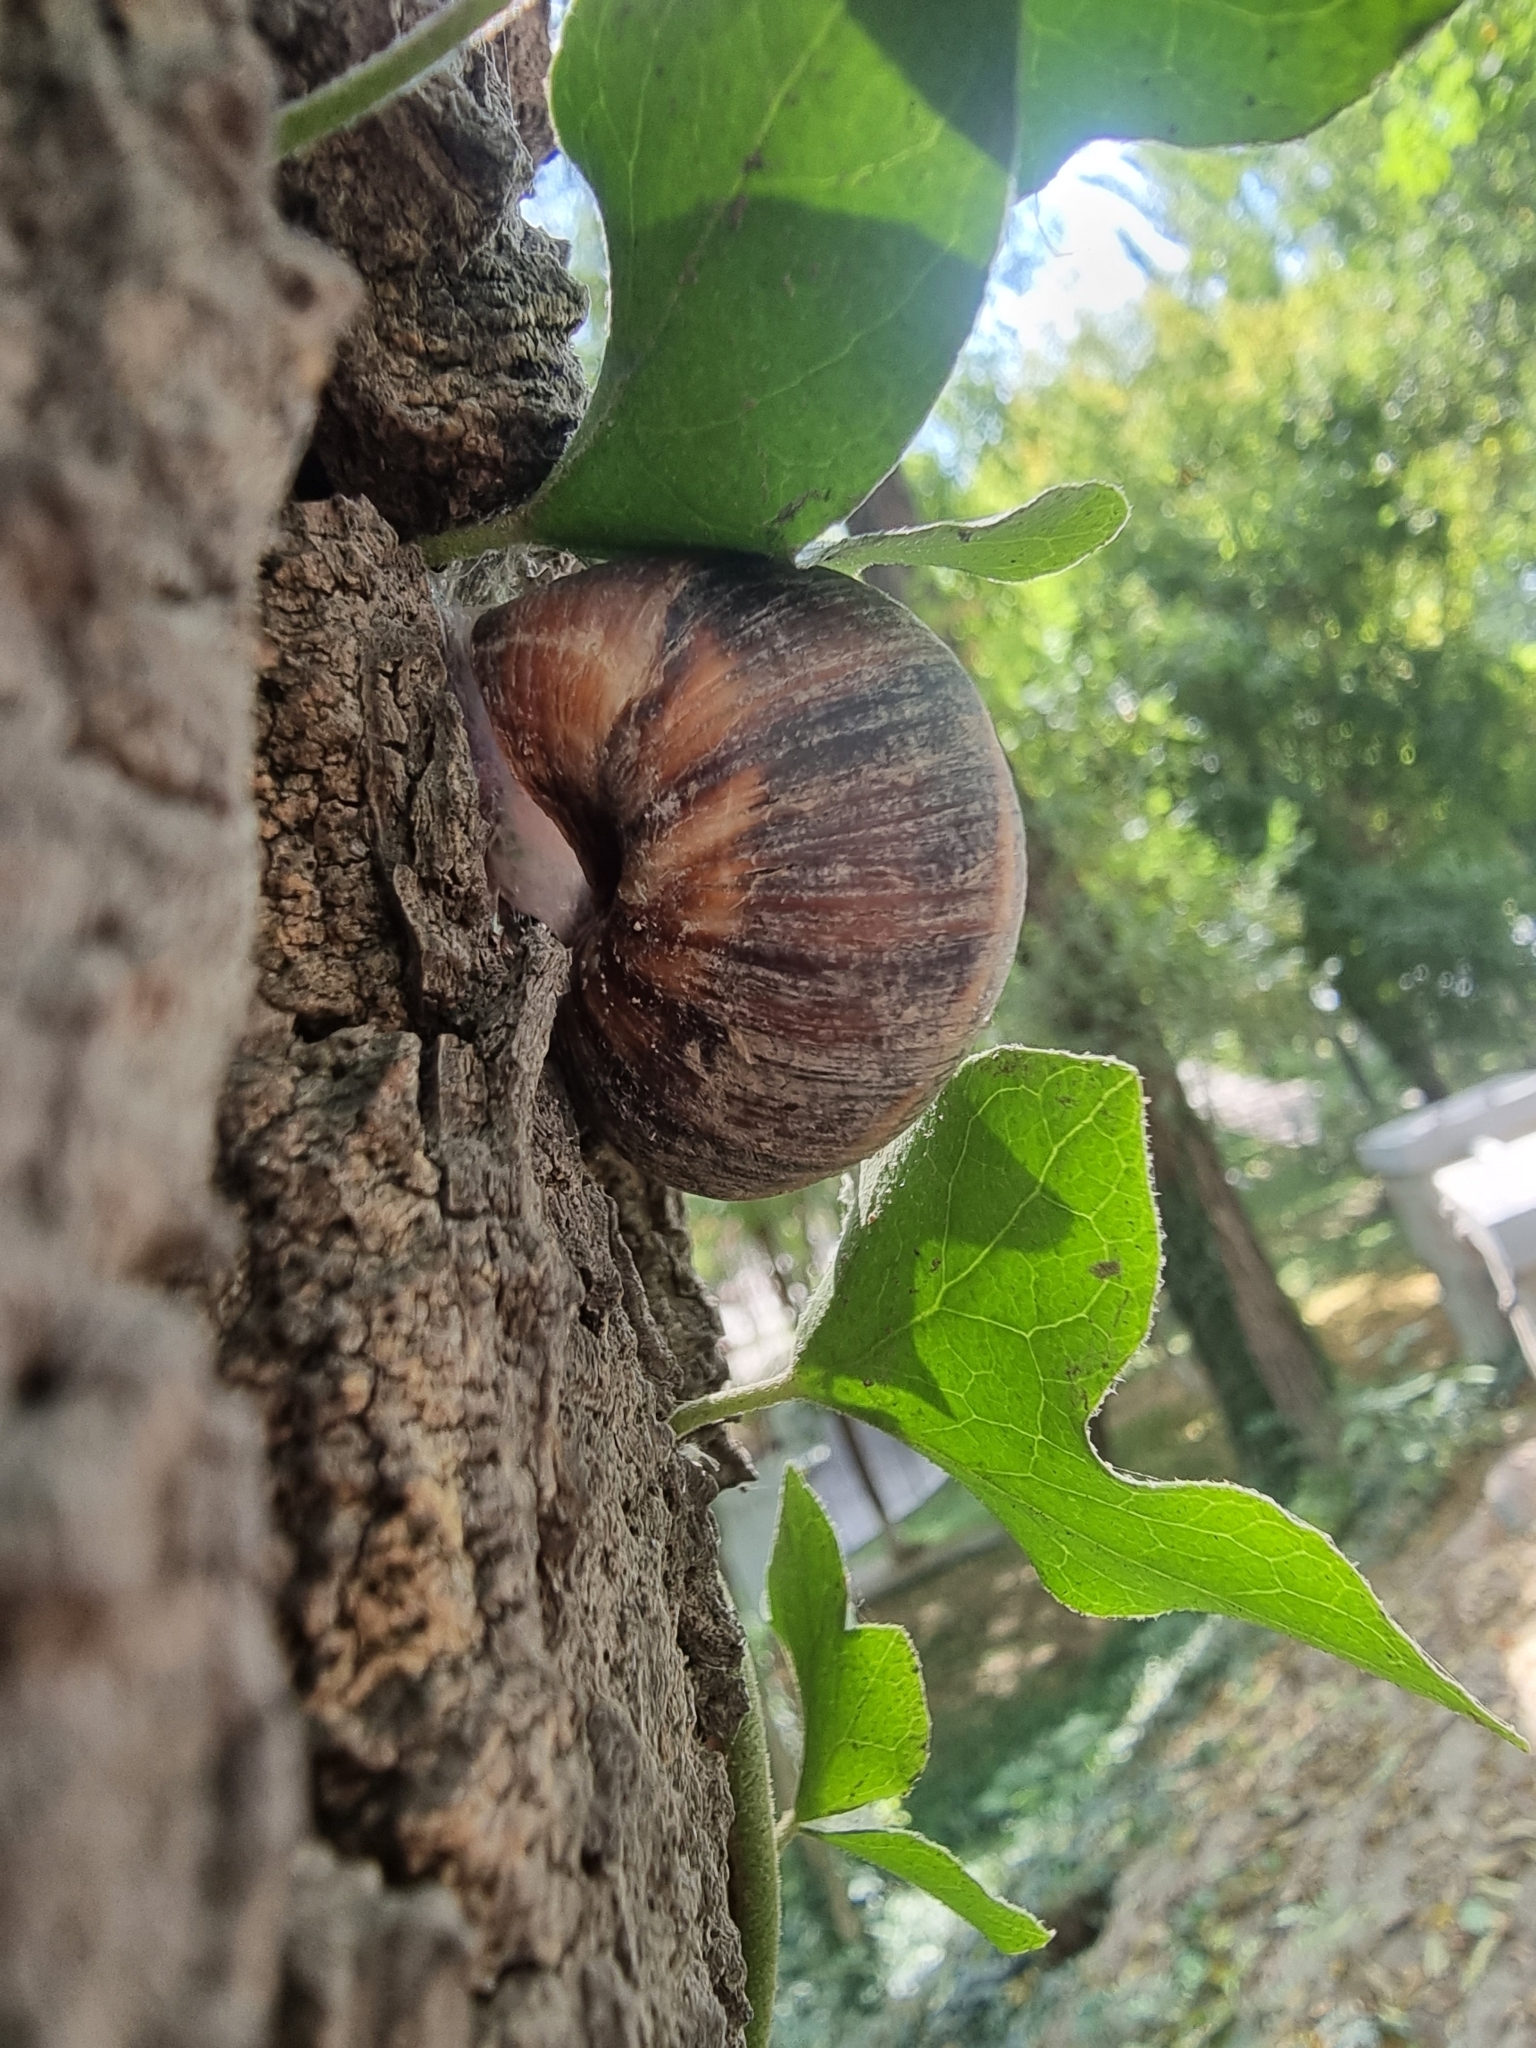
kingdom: Animalia
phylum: Mollusca
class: Gastropoda
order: Stylommatophora
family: Helicidae
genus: Helix
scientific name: Helix lucorum
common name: Turkish snail
